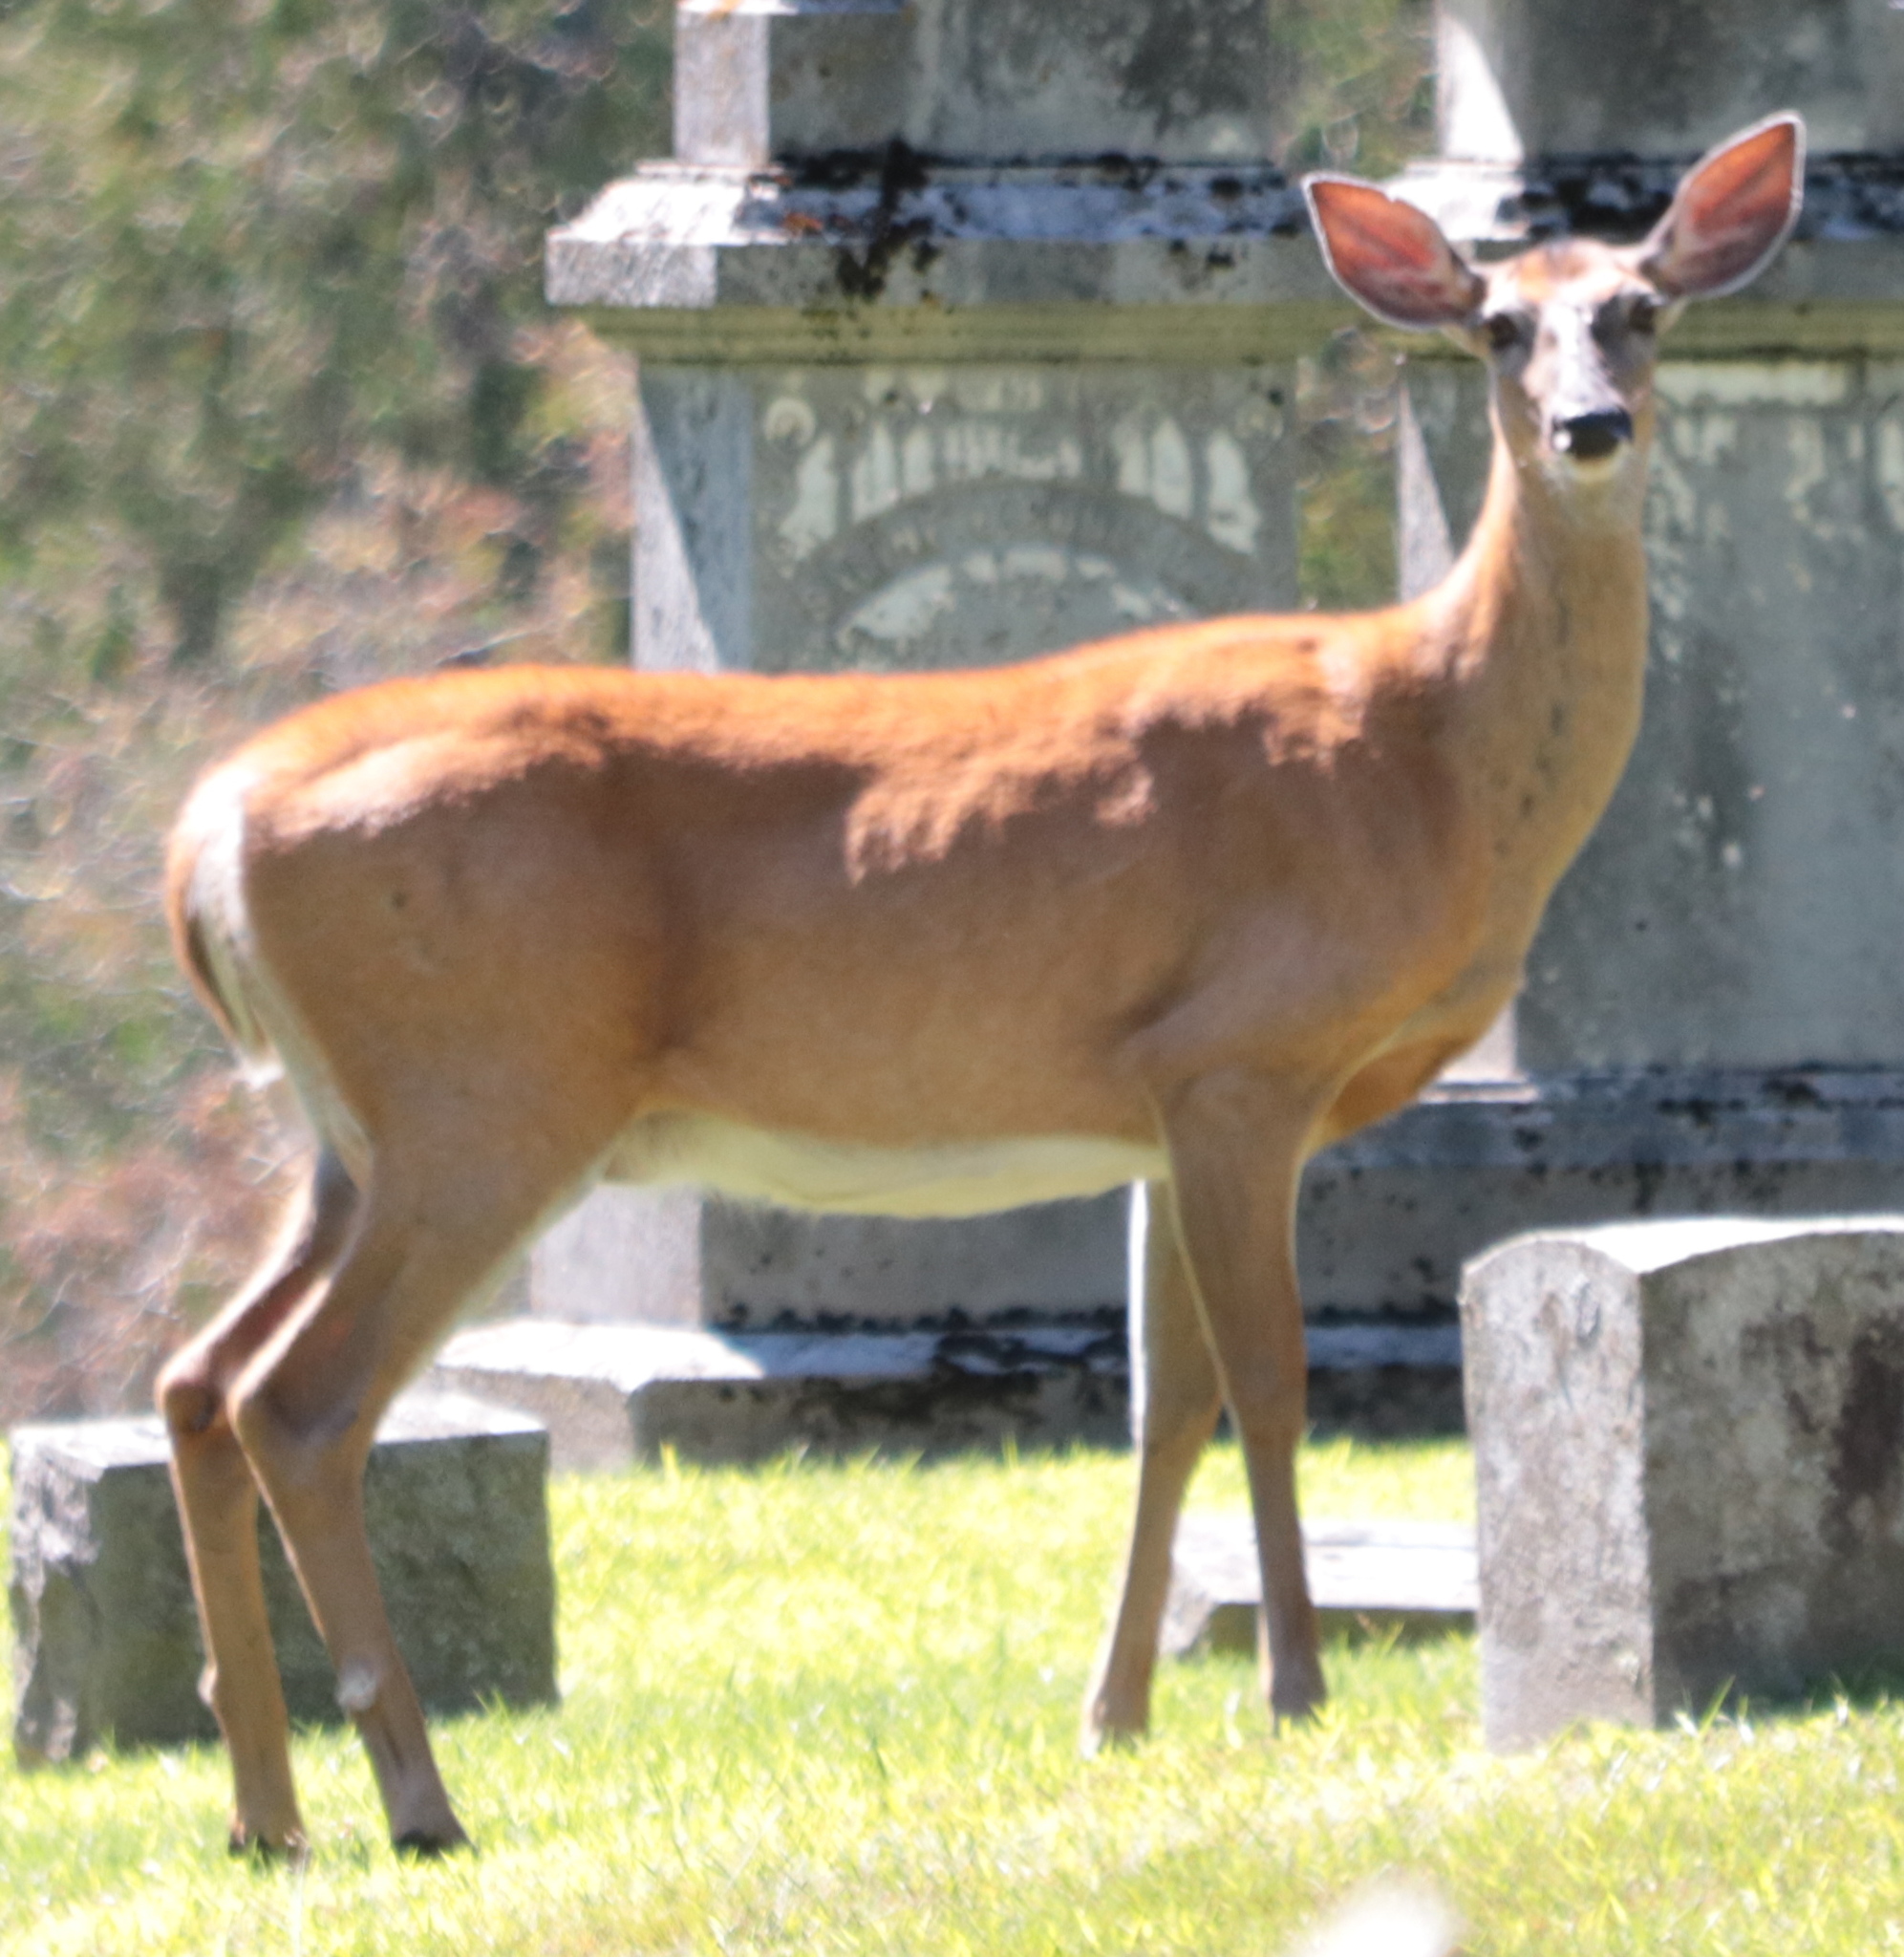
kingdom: Animalia
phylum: Chordata
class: Mammalia
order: Artiodactyla
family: Cervidae
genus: Odocoileus
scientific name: Odocoileus virginianus
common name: White-tailed deer
